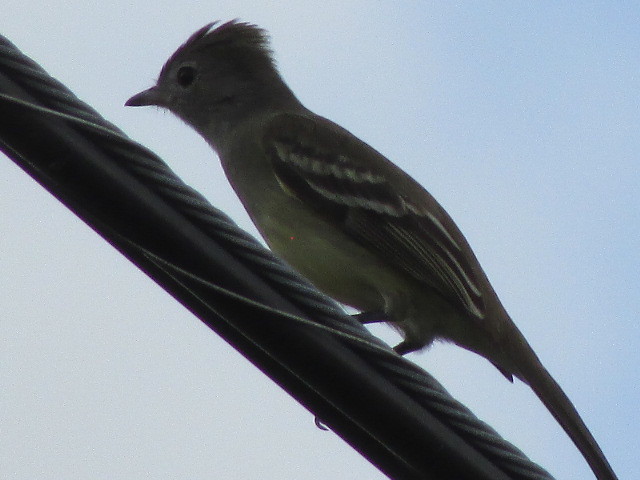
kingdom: Animalia
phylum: Chordata
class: Aves
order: Passeriformes
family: Tyrannidae
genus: Elaenia
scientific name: Elaenia flavogaster
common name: Yellow-bellied elaenia
